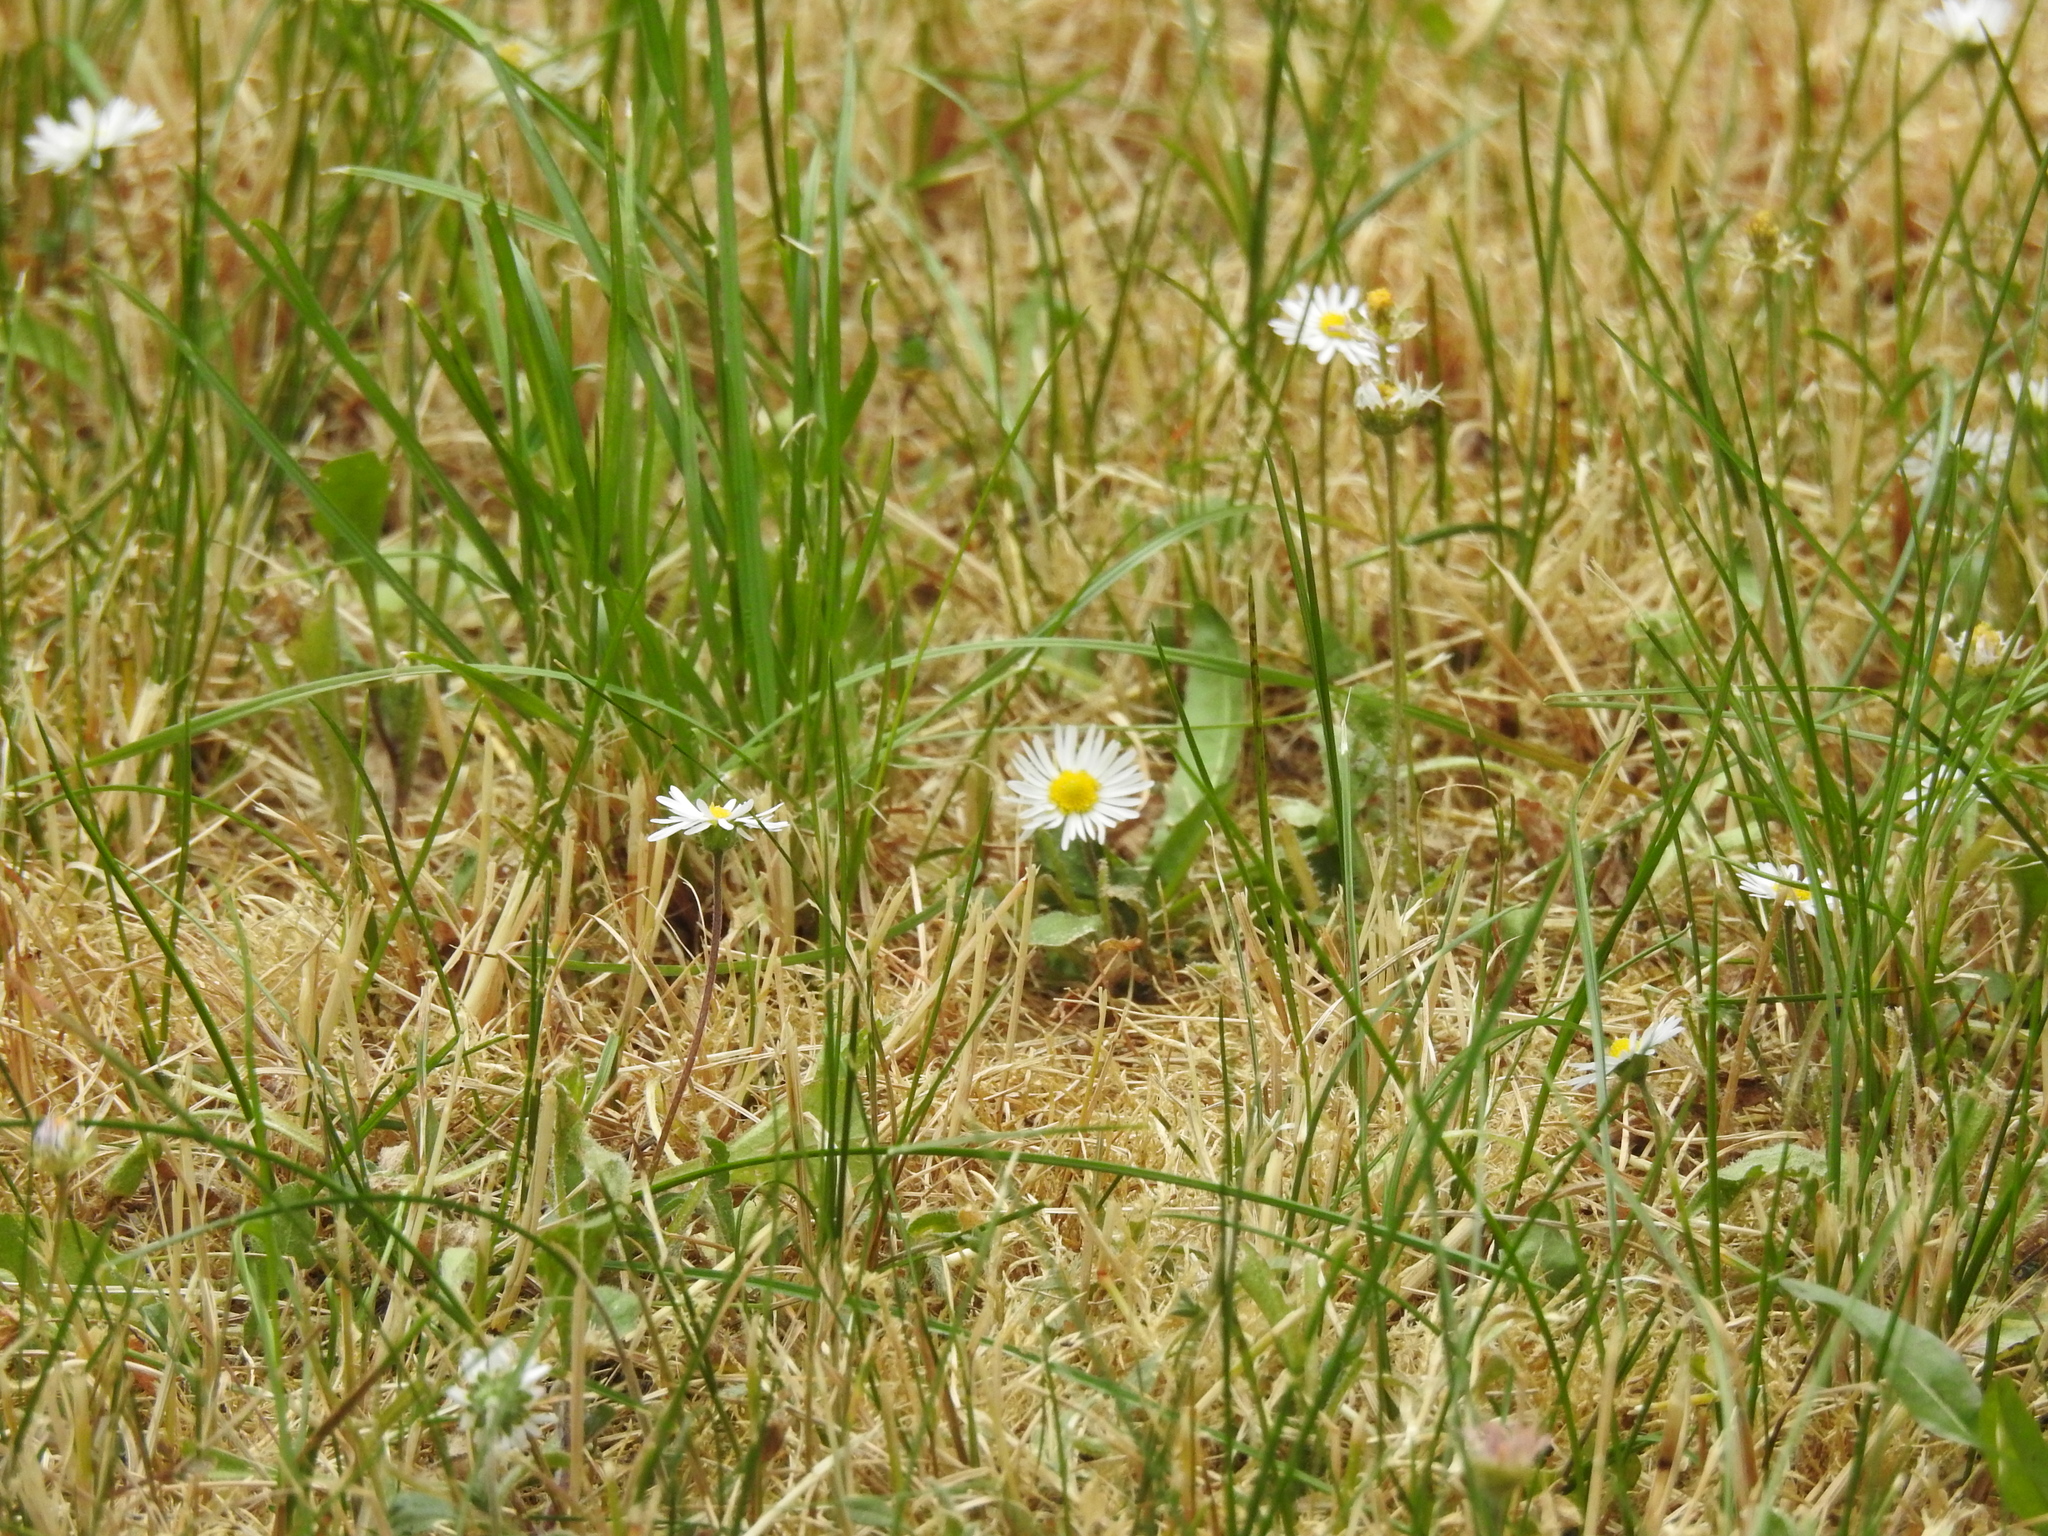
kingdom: Plantae
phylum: Tracheophyta
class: Magnoliopsida
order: Asterales
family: Asteraceae
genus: Bellis
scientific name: Bellis perennis
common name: Lawndaisy
